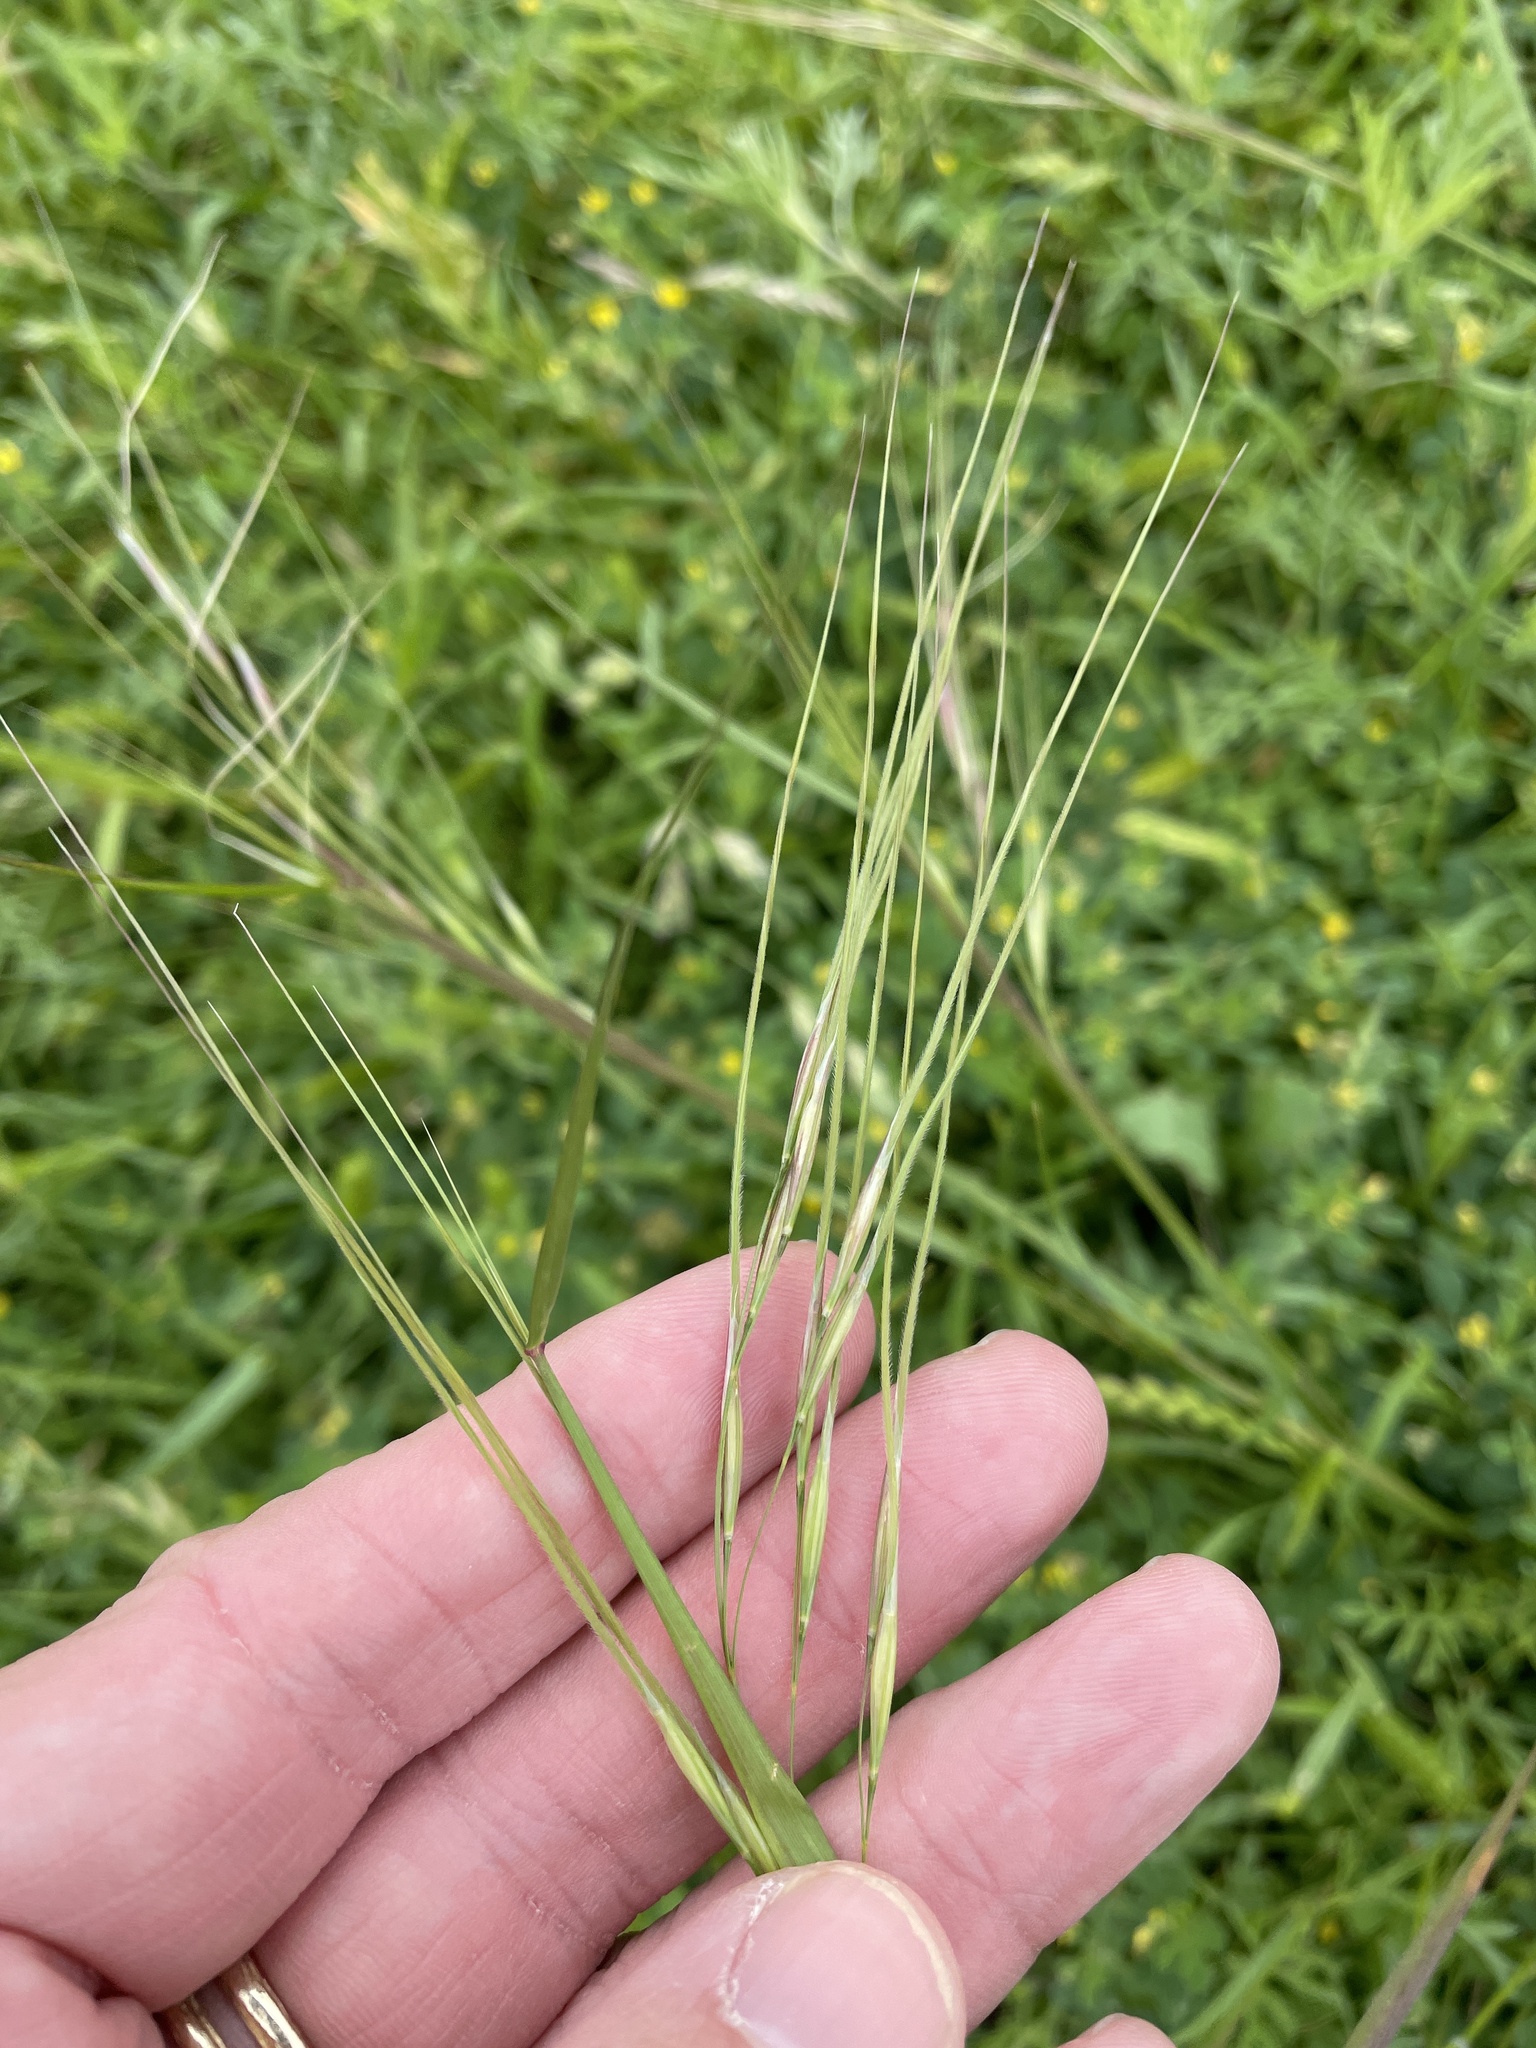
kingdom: Plantae
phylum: Tracheophyta
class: Liliopsida
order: Poales
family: Poaceae
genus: Nassella
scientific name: Nassella leucotricha
